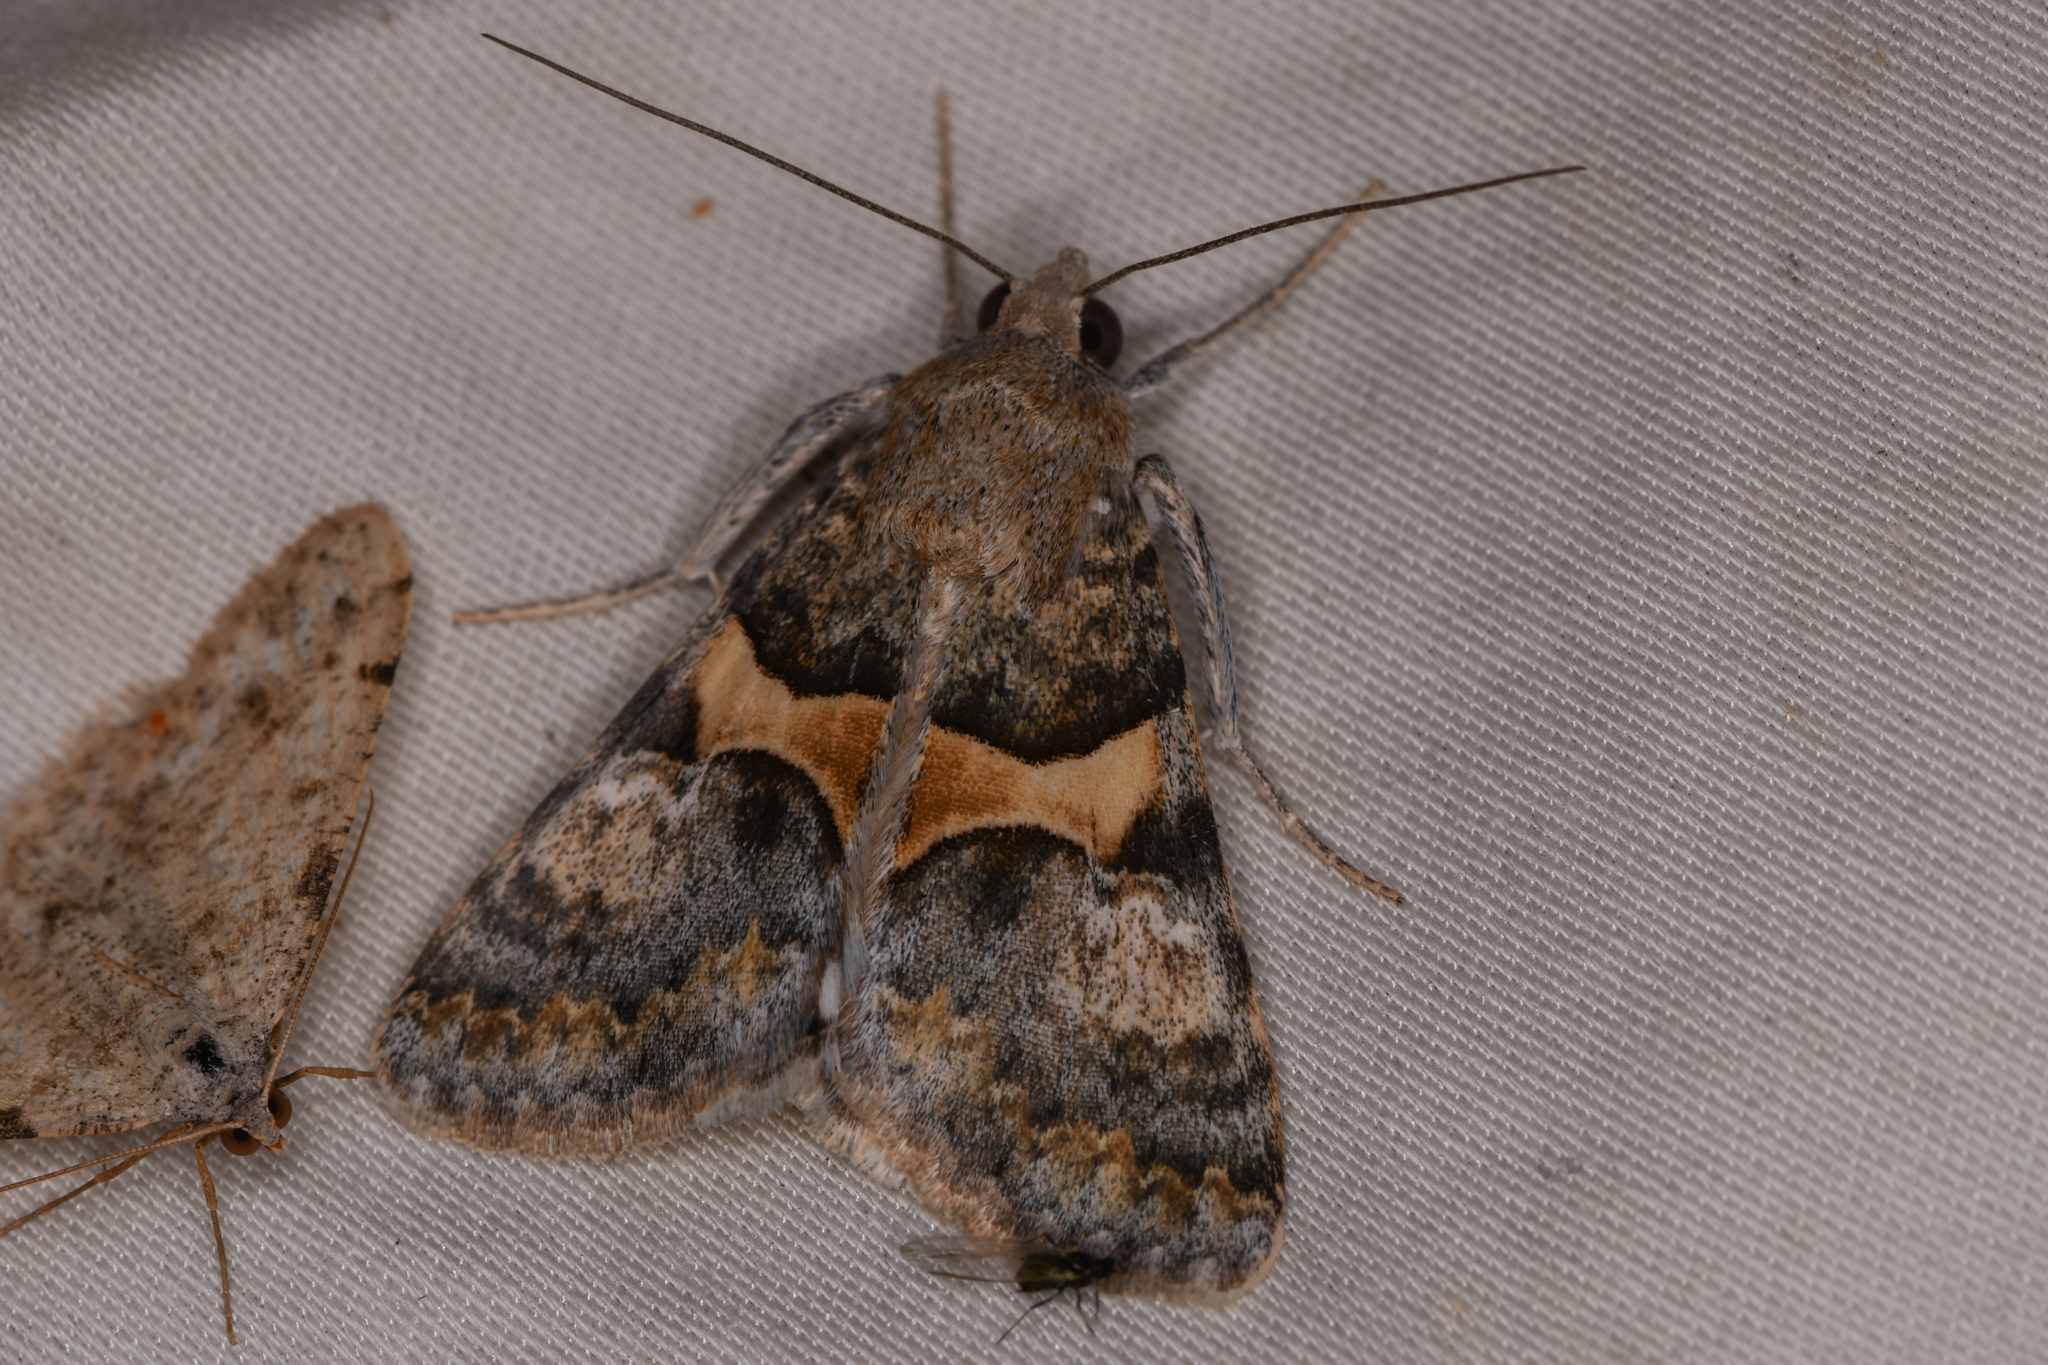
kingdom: Animalia
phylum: Arthropoda
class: Insecta
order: Lepidoptera
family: Erebidae
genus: Melipotis
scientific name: Melipotis jucunda
